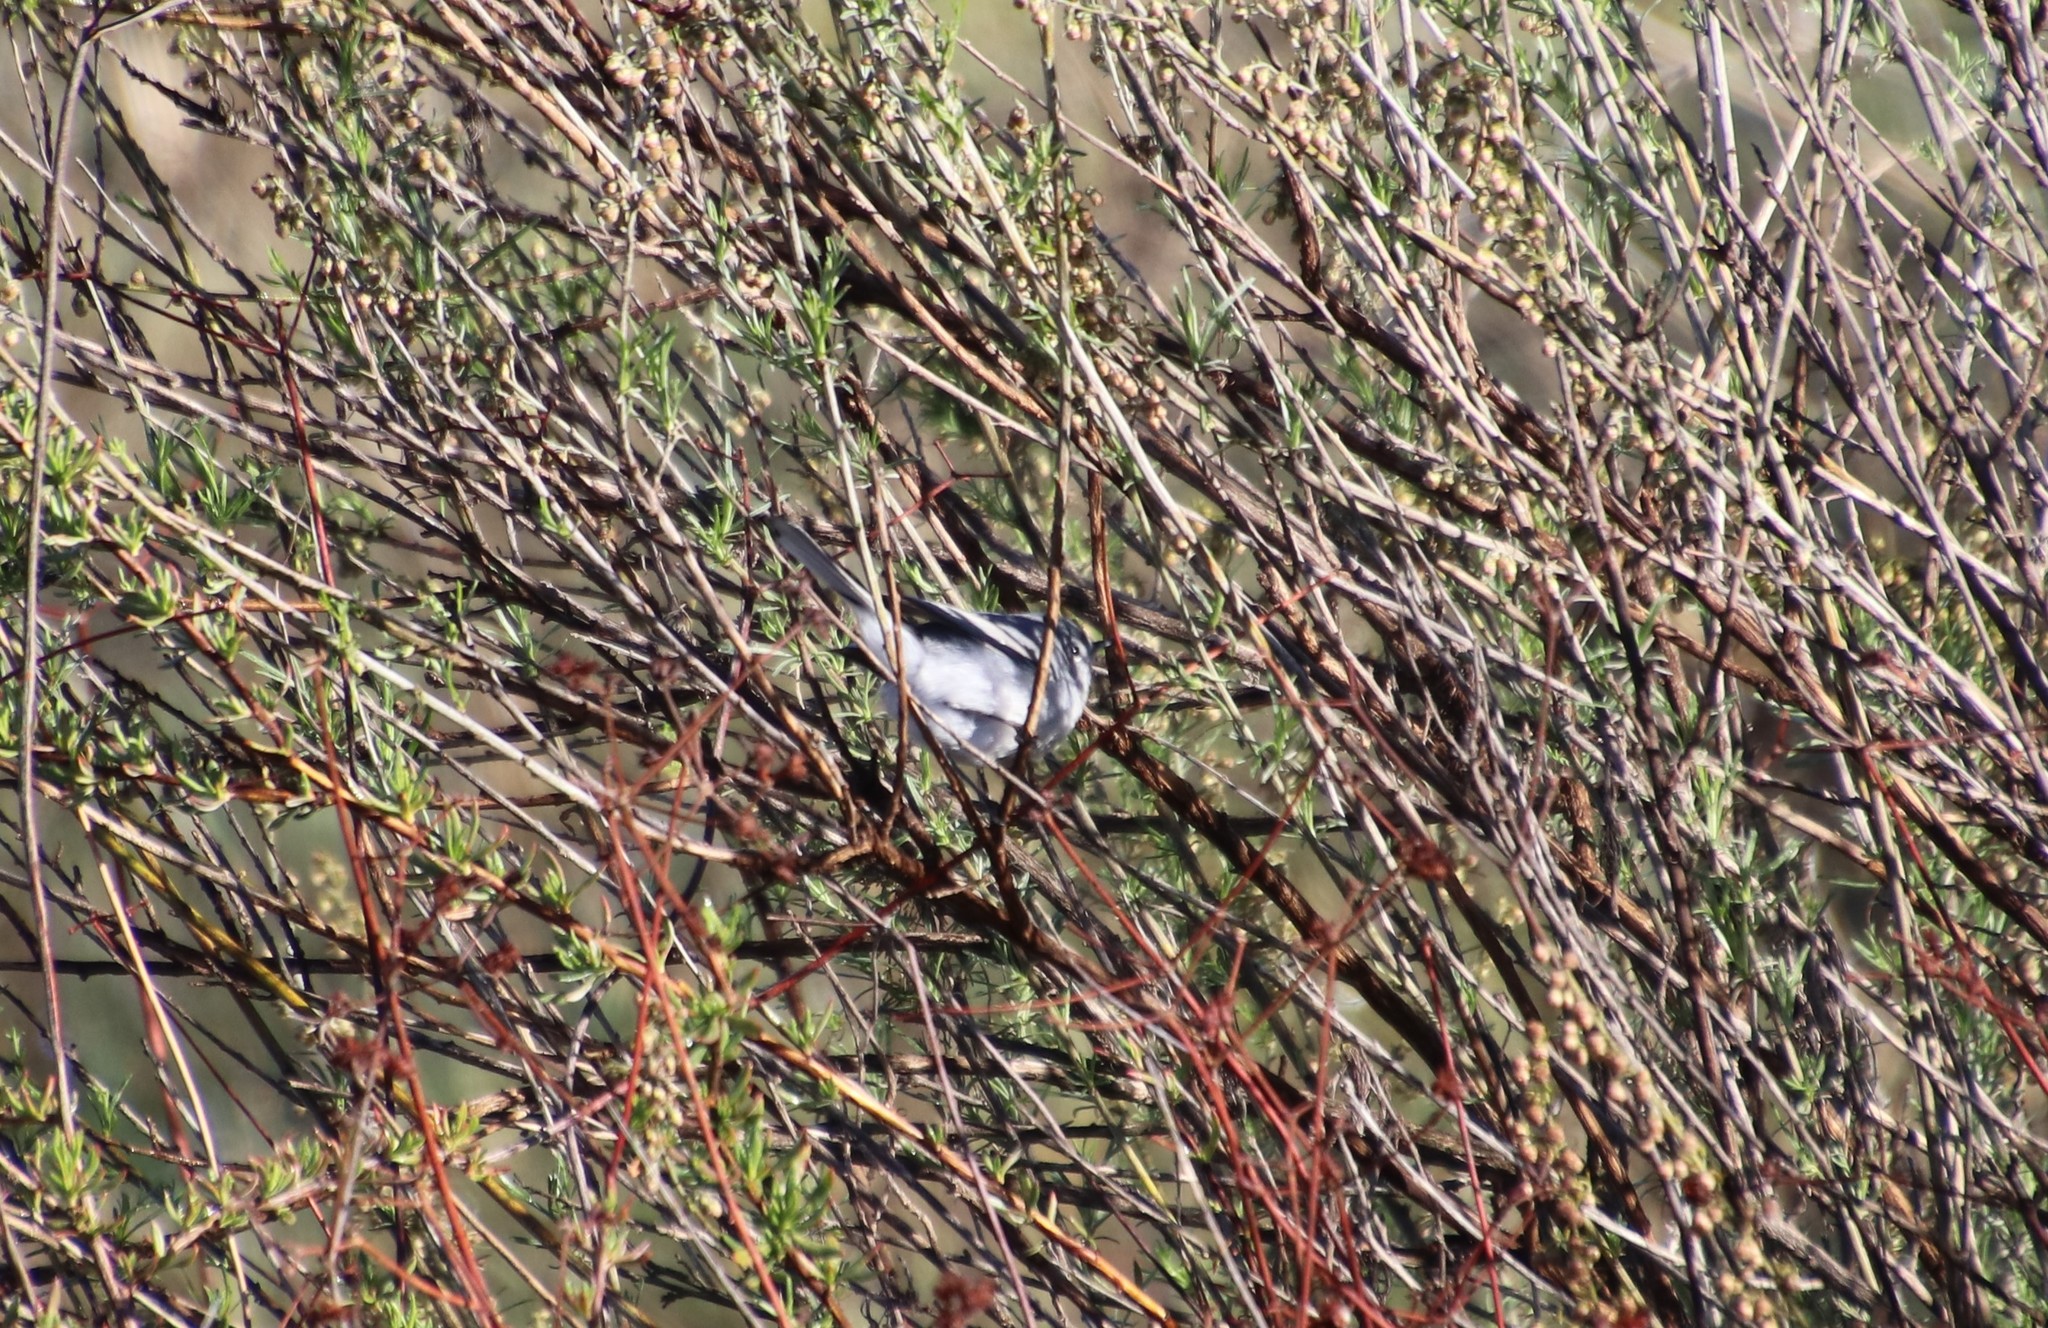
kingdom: Animalia
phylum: Chordata
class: Aves
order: Passeriformes
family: Polioptilidae
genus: Polioptila
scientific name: Polioptila caerulea
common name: Blue-gray gnatcatcher
